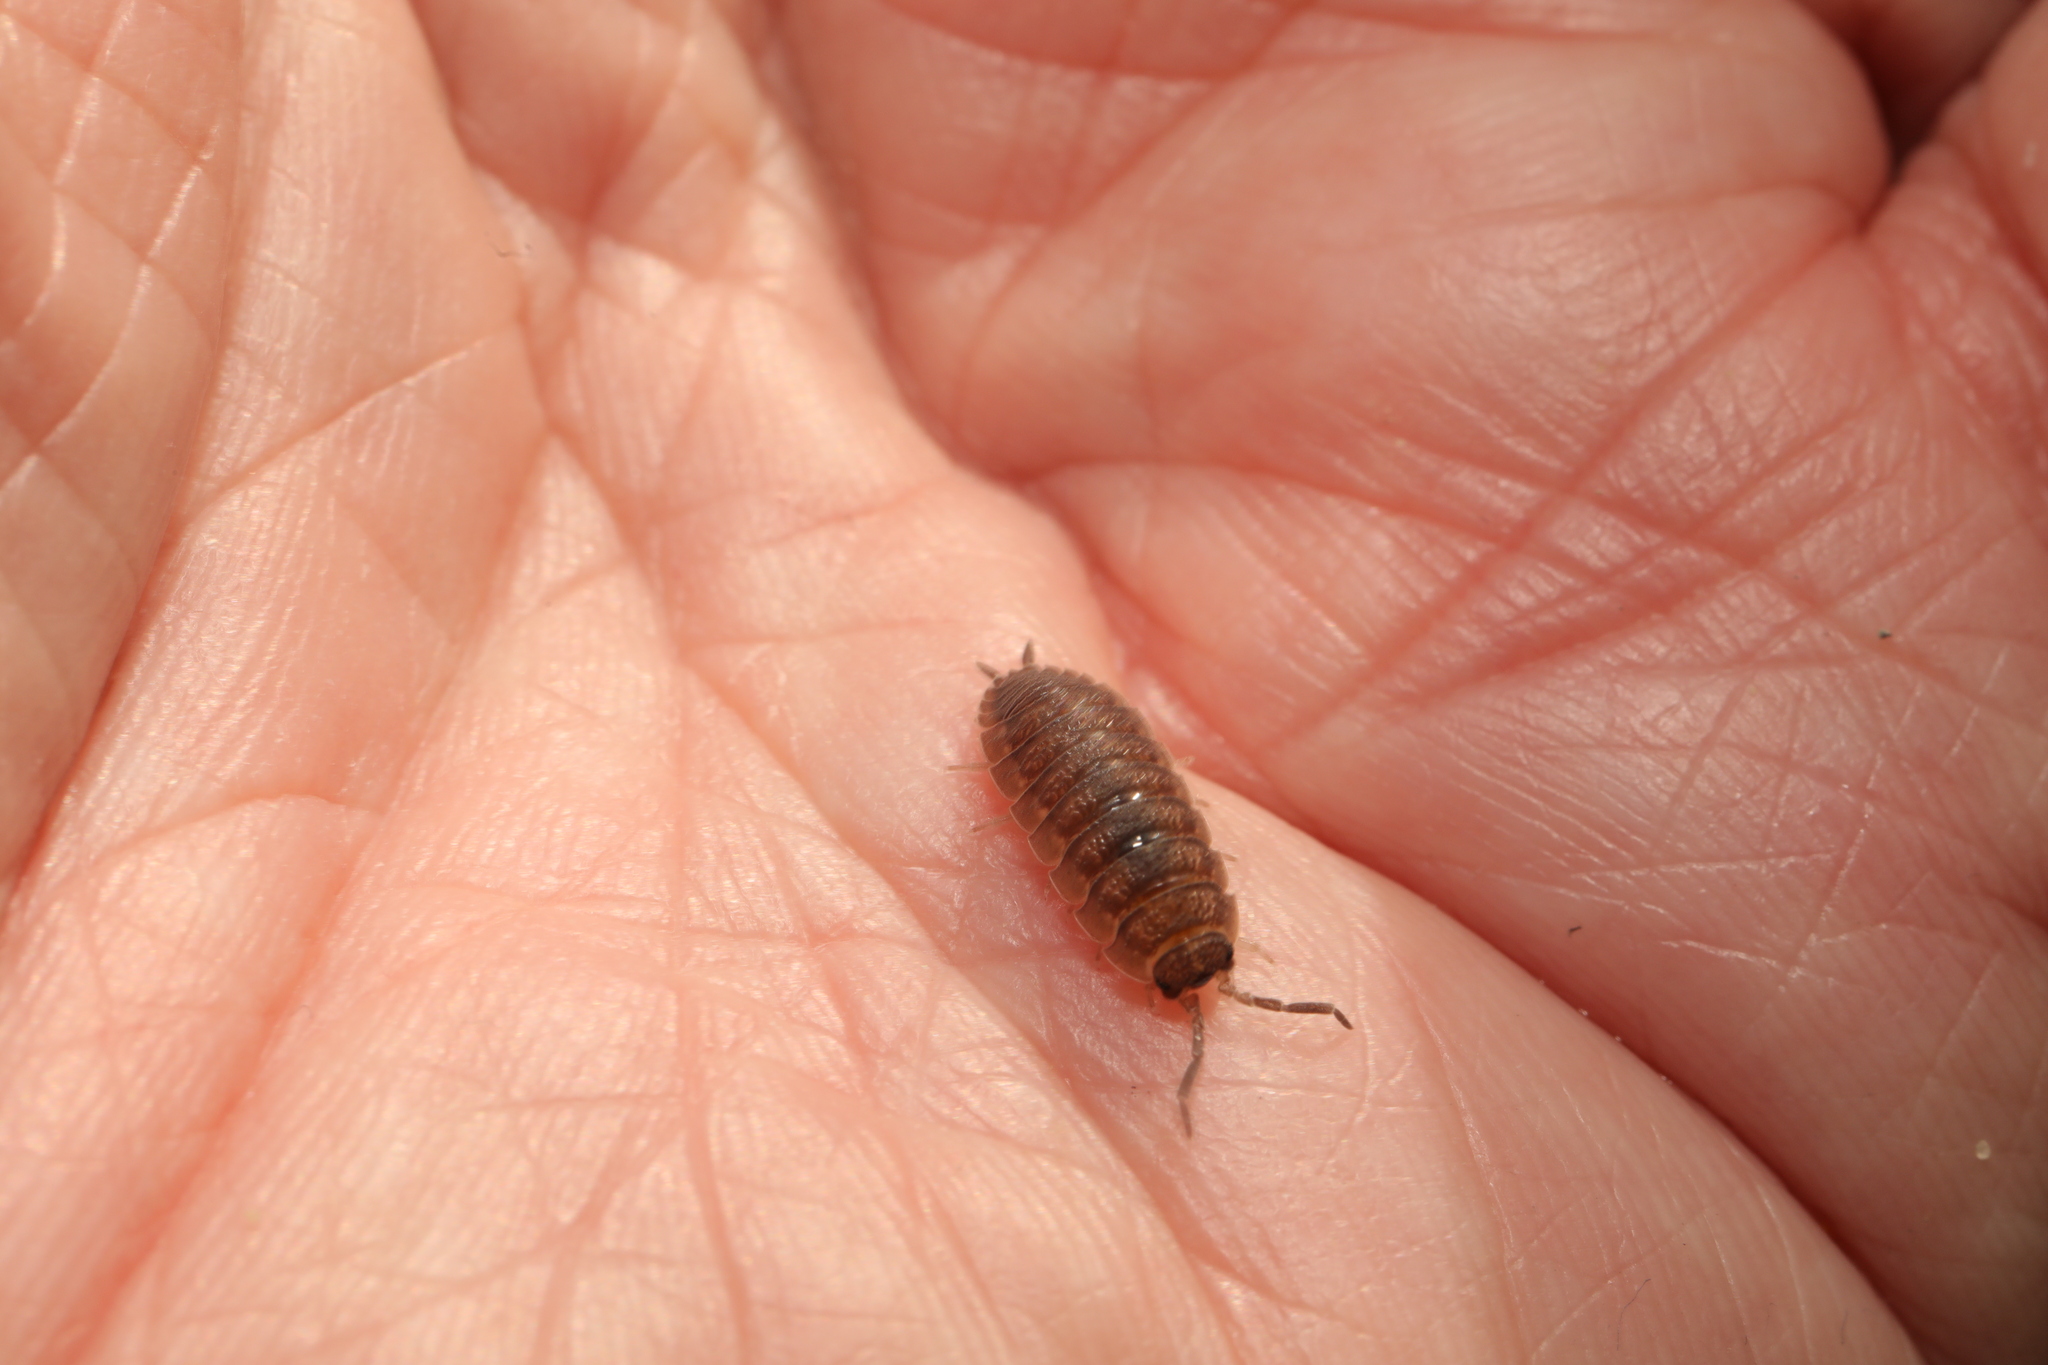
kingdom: Animalia
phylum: Arthropoda
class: Malacostraca
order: Isopoda
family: Porcellionidae
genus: Porcellio
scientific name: Porcellio scaber
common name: Common rough woodlouse
